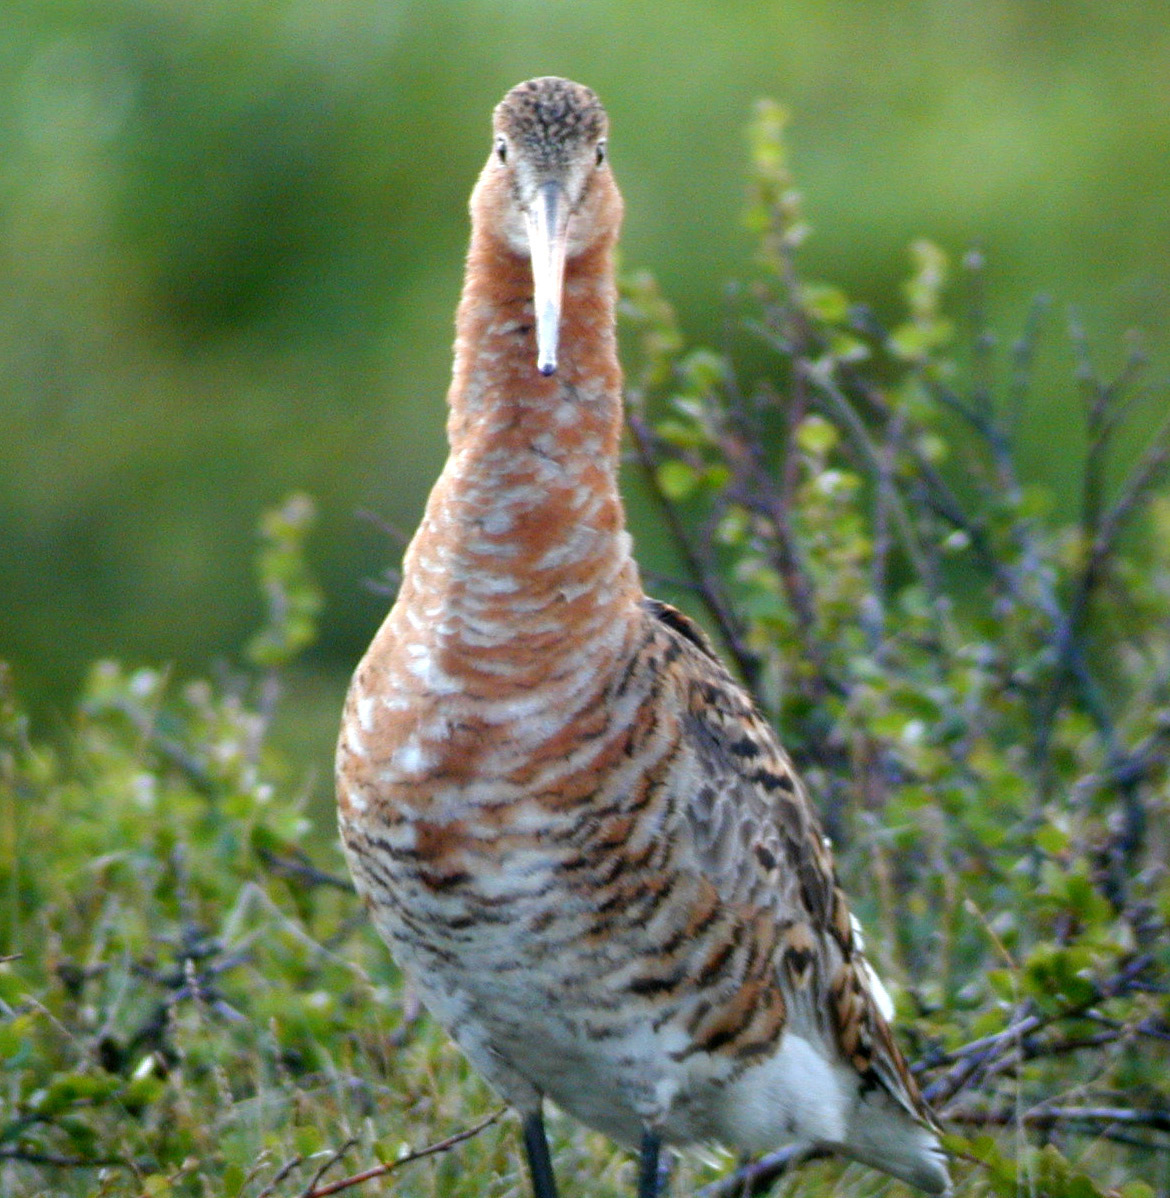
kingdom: Animalia
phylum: Chordata
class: Aves
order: Charadriiformes
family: Scolopacidae
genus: Limosa
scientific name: Limosa limosa
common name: Black-tailed godwit
